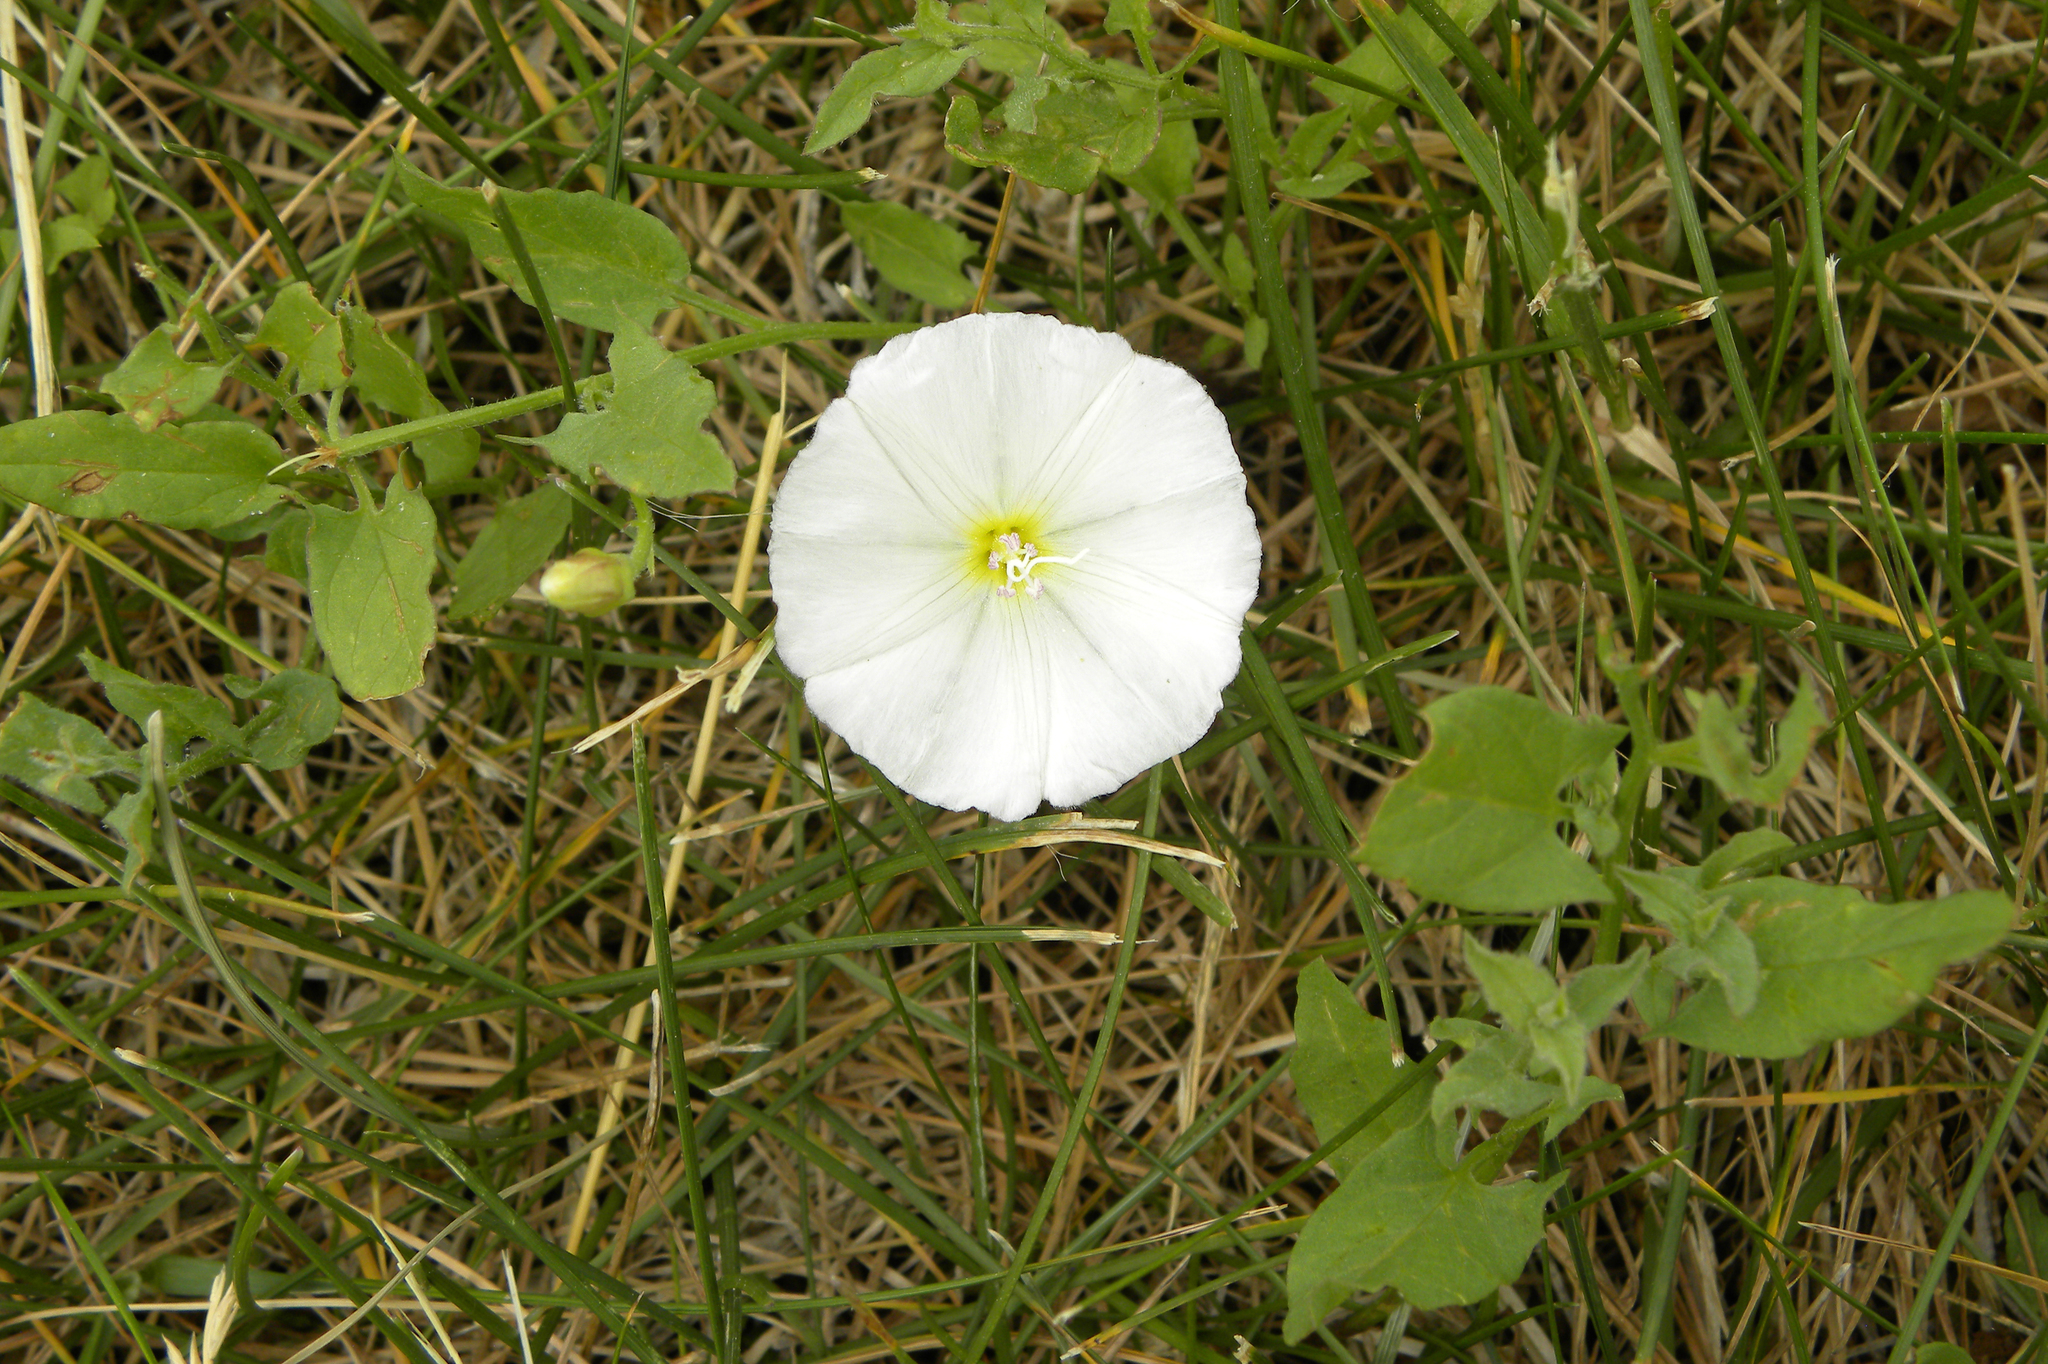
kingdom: Plantae
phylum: Tracheophyta
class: Magnoliopsida
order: Solanales
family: Convolvulaceae
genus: Convolvulus
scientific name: Convolvulus arvensis
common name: Field bindweed
